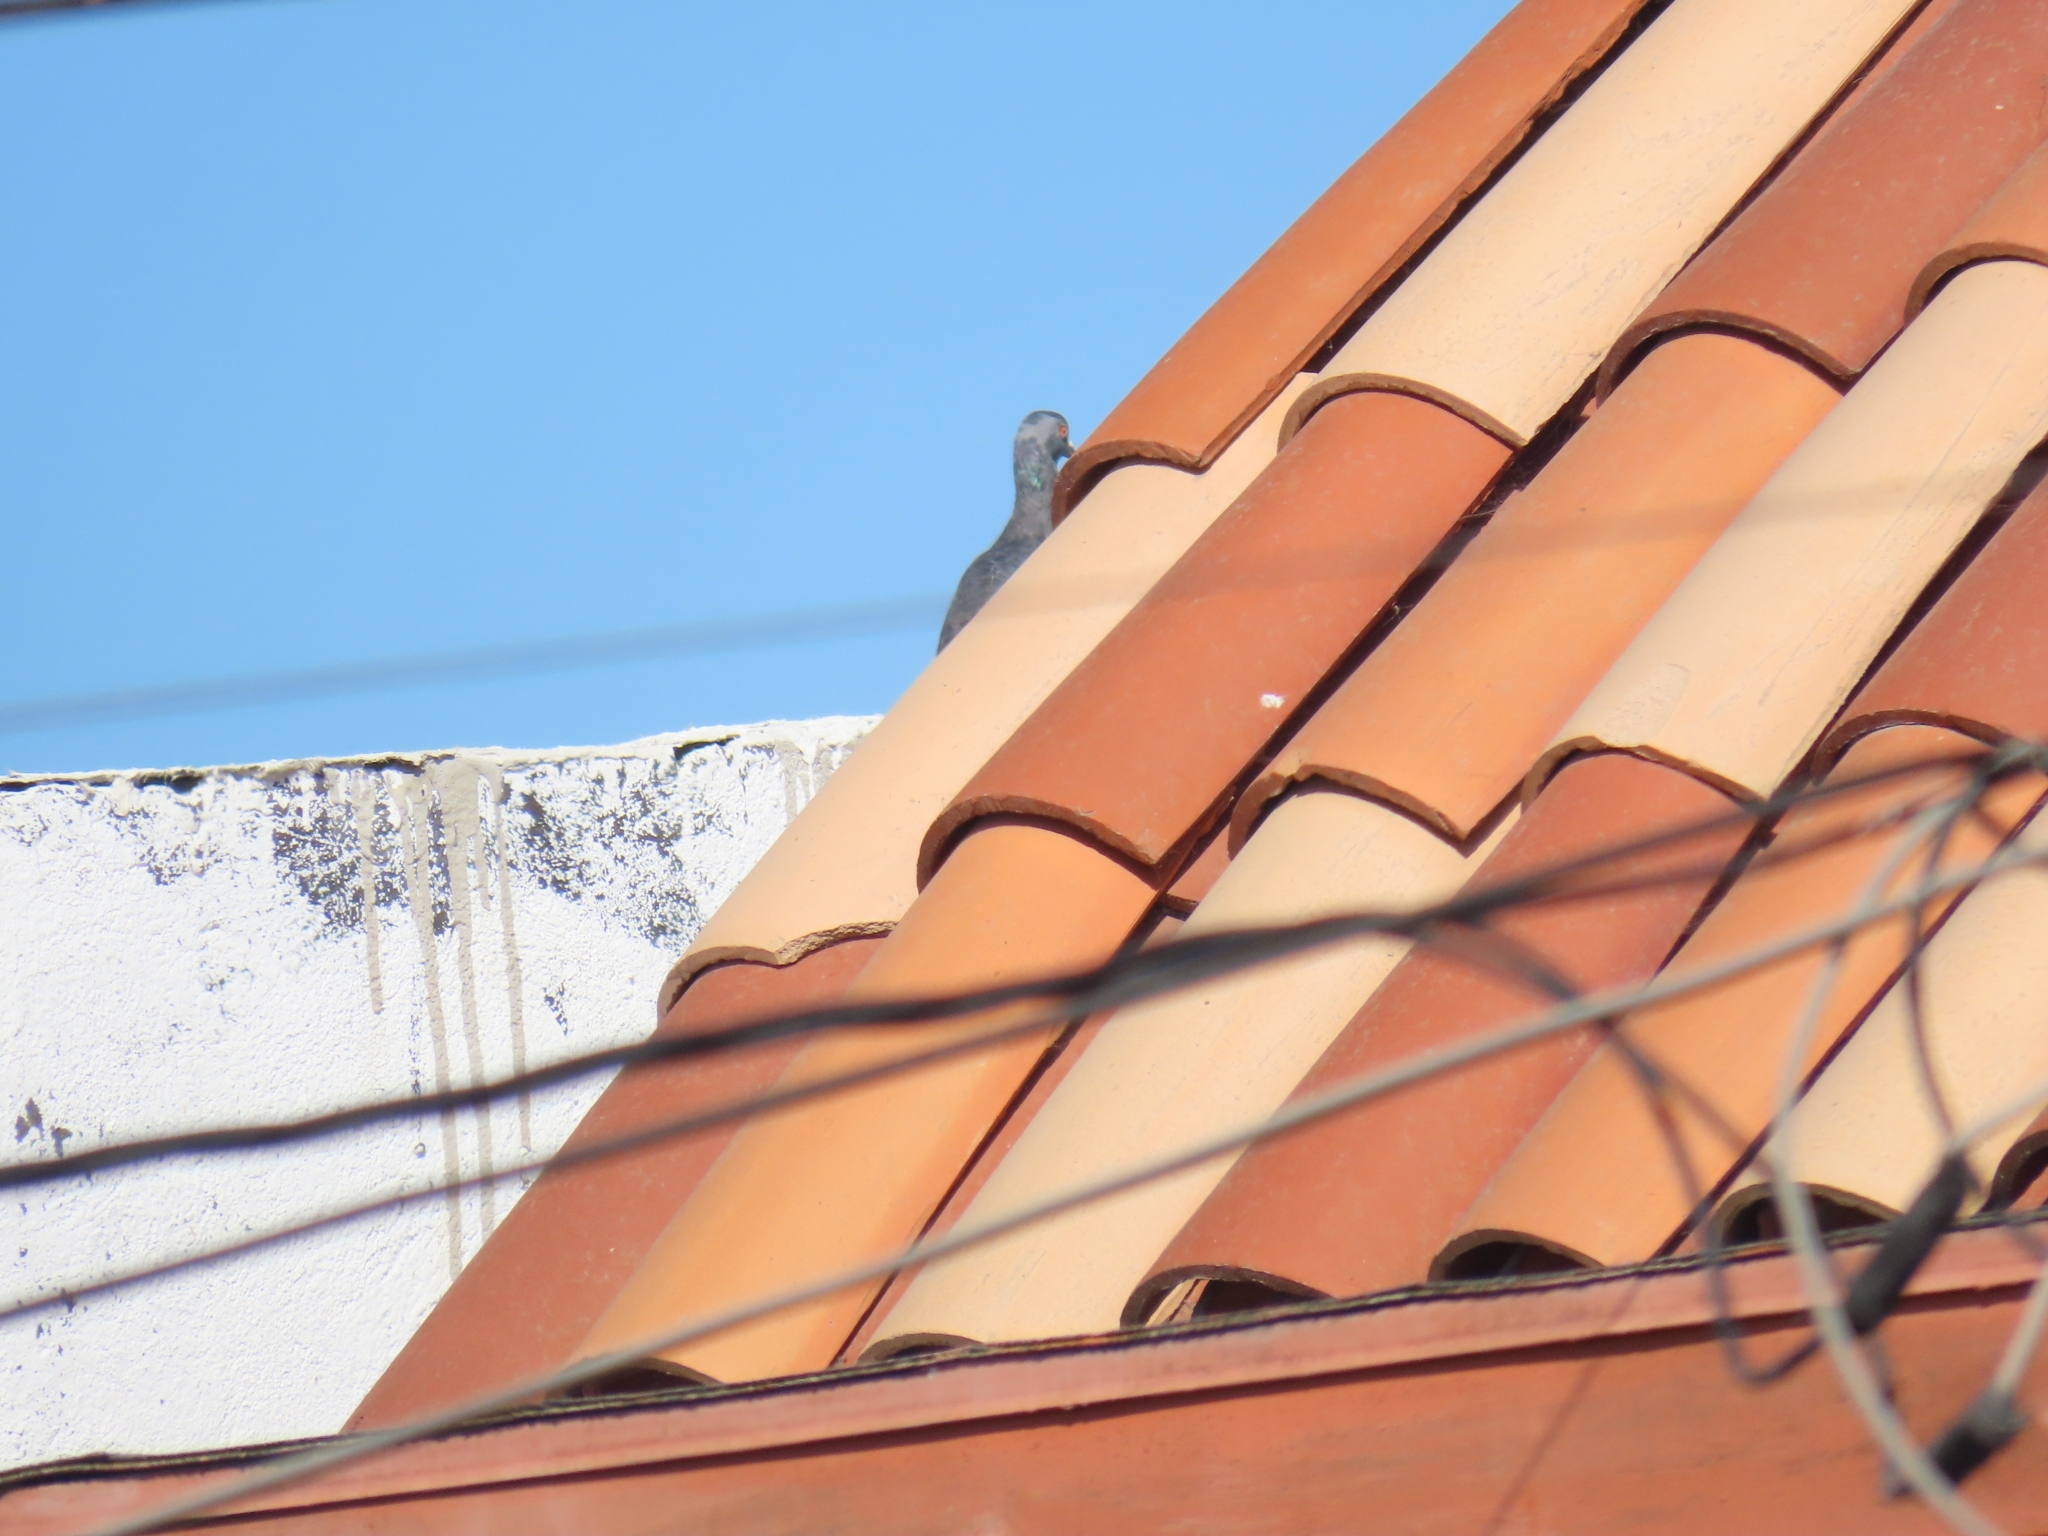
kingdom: Animalia
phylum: Chordata
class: Aves
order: Columbiformes
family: Columbidae
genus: Columba
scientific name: Columba livia
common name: Rock pigeon
